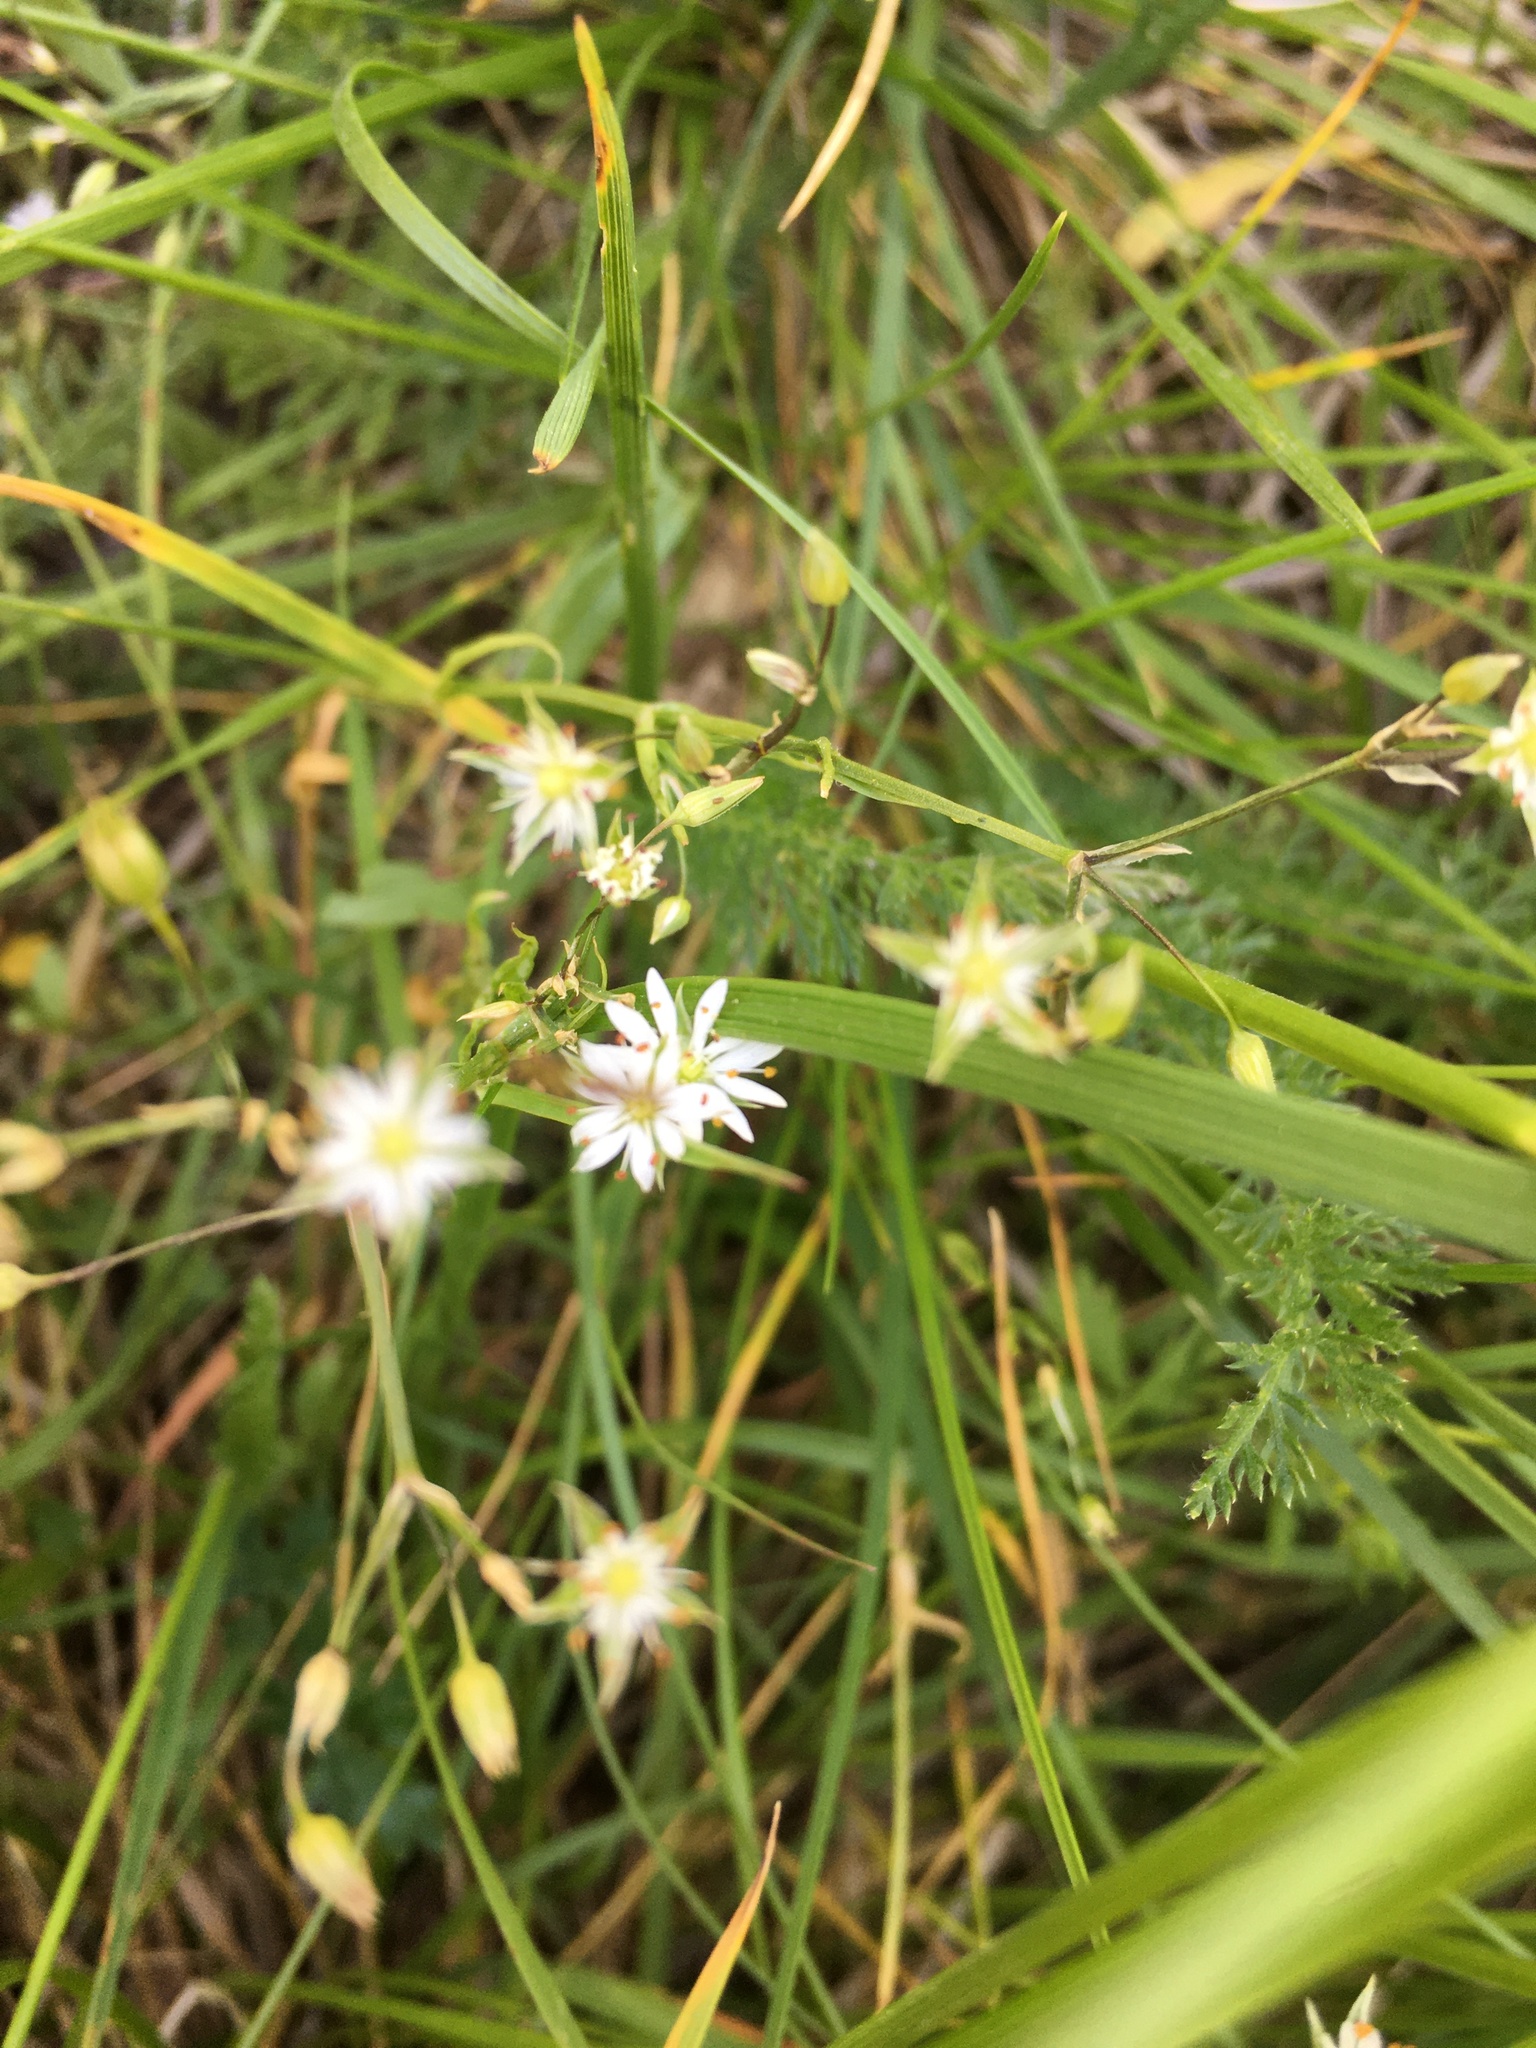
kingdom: Plantae
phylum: Tracheophyta
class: Magnoliopsida
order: Caryophyllales
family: Caryophyllaceae
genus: Stellaria
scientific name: Stellaria graminea
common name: Grass-like starwort
